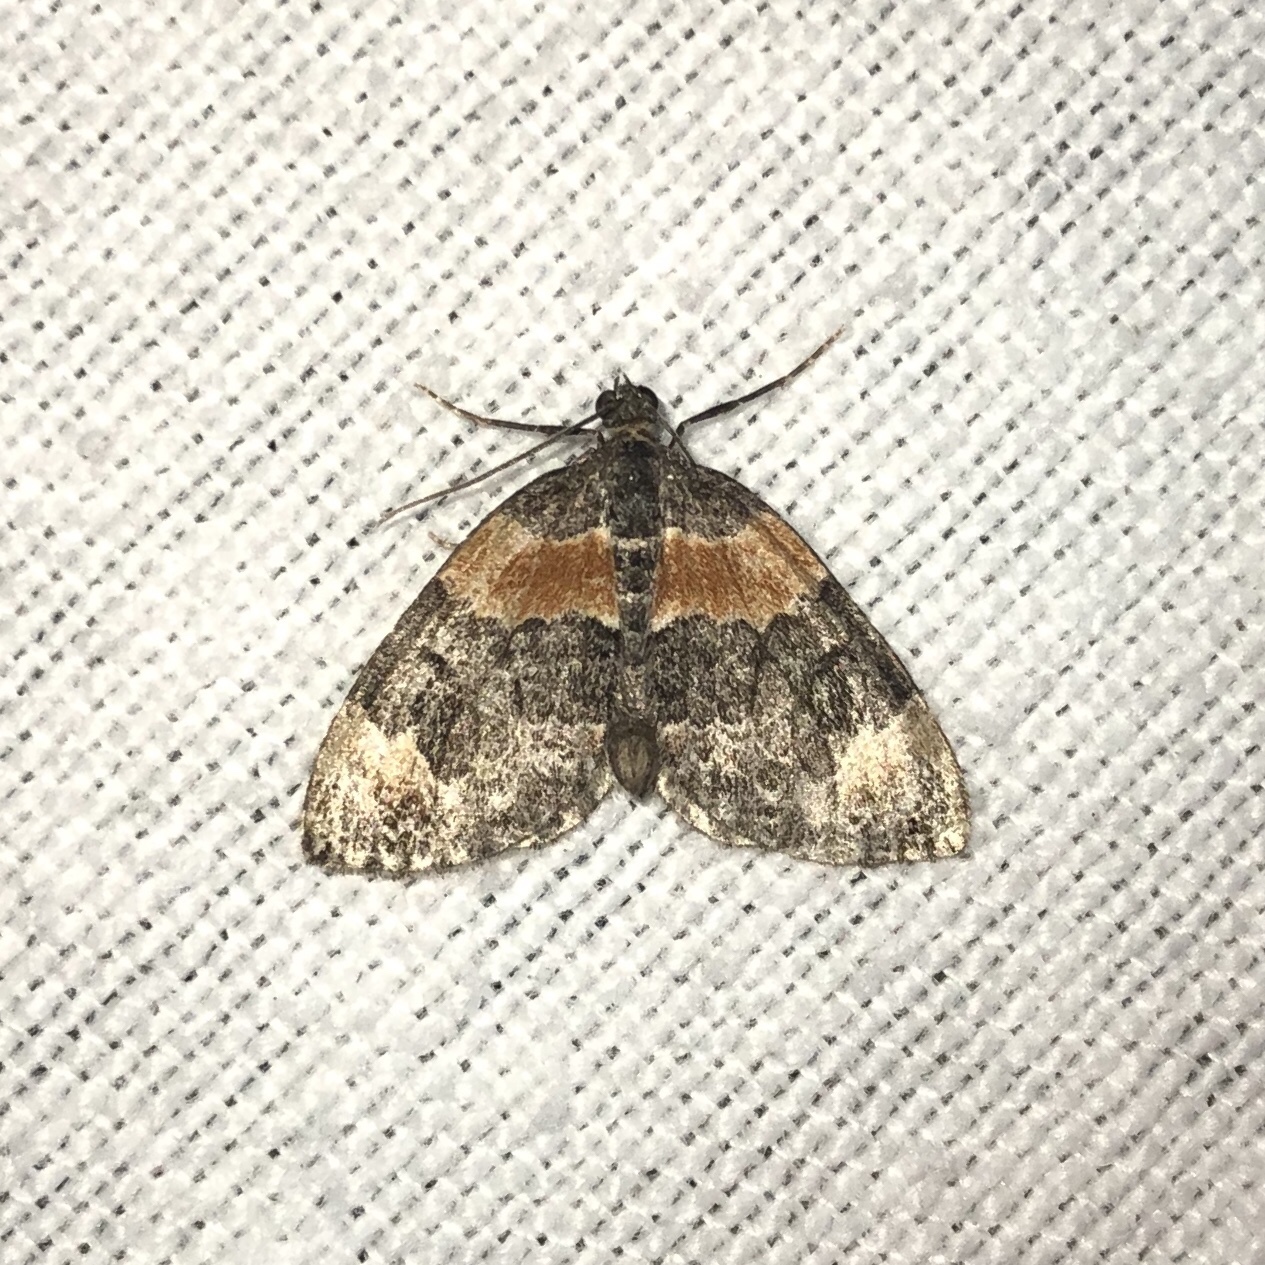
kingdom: Animalia
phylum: Arthropoda
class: Insecta
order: Lepidoptera
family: Geometridae
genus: Dysstroma
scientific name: Dysstroma hersiliata
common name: Orange-barred carpet
